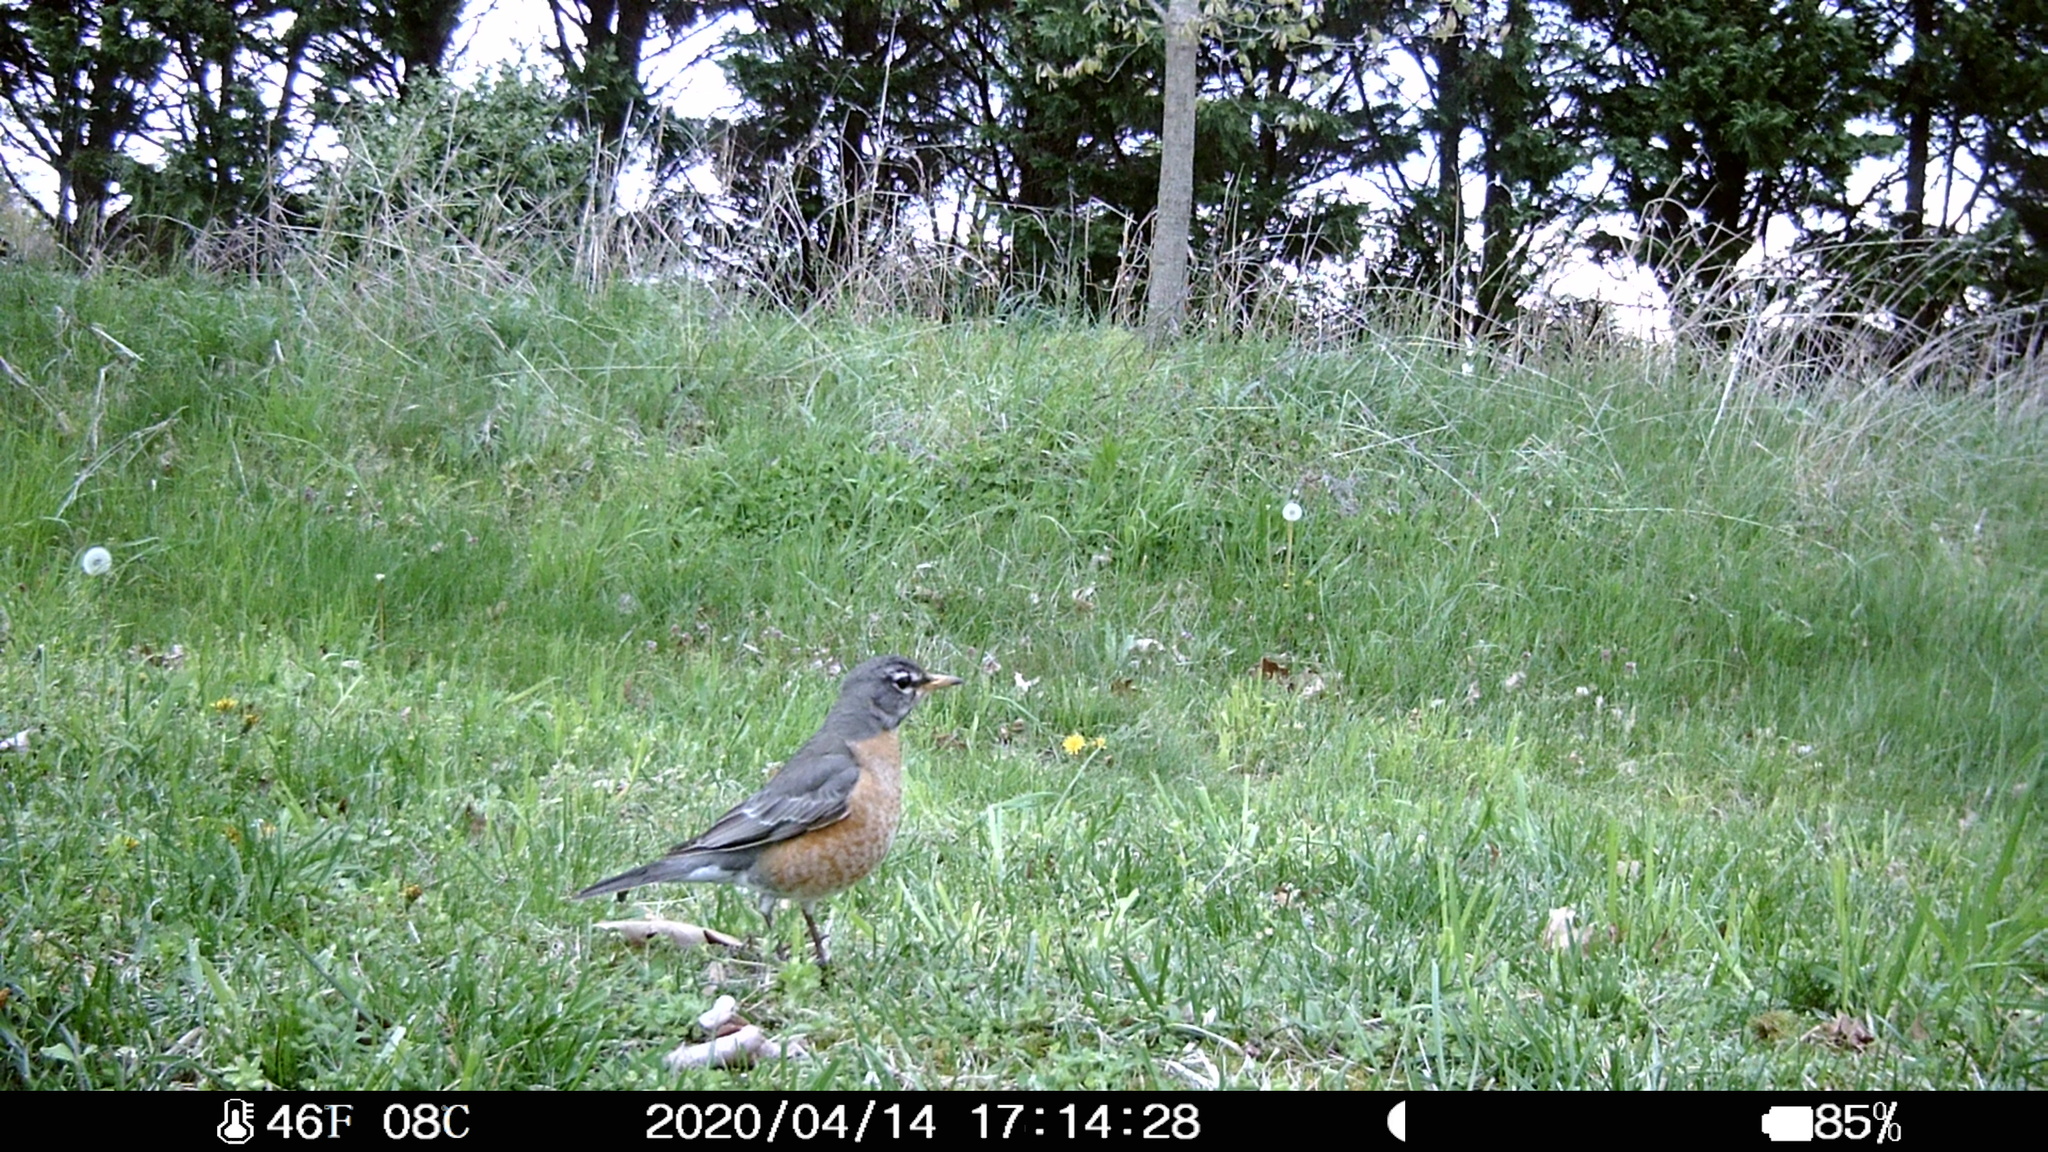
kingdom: Animalia
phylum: Chordata
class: Aves
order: Passeriformes
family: Turdidae
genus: Turdus
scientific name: Turdus migratorius
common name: American robin
